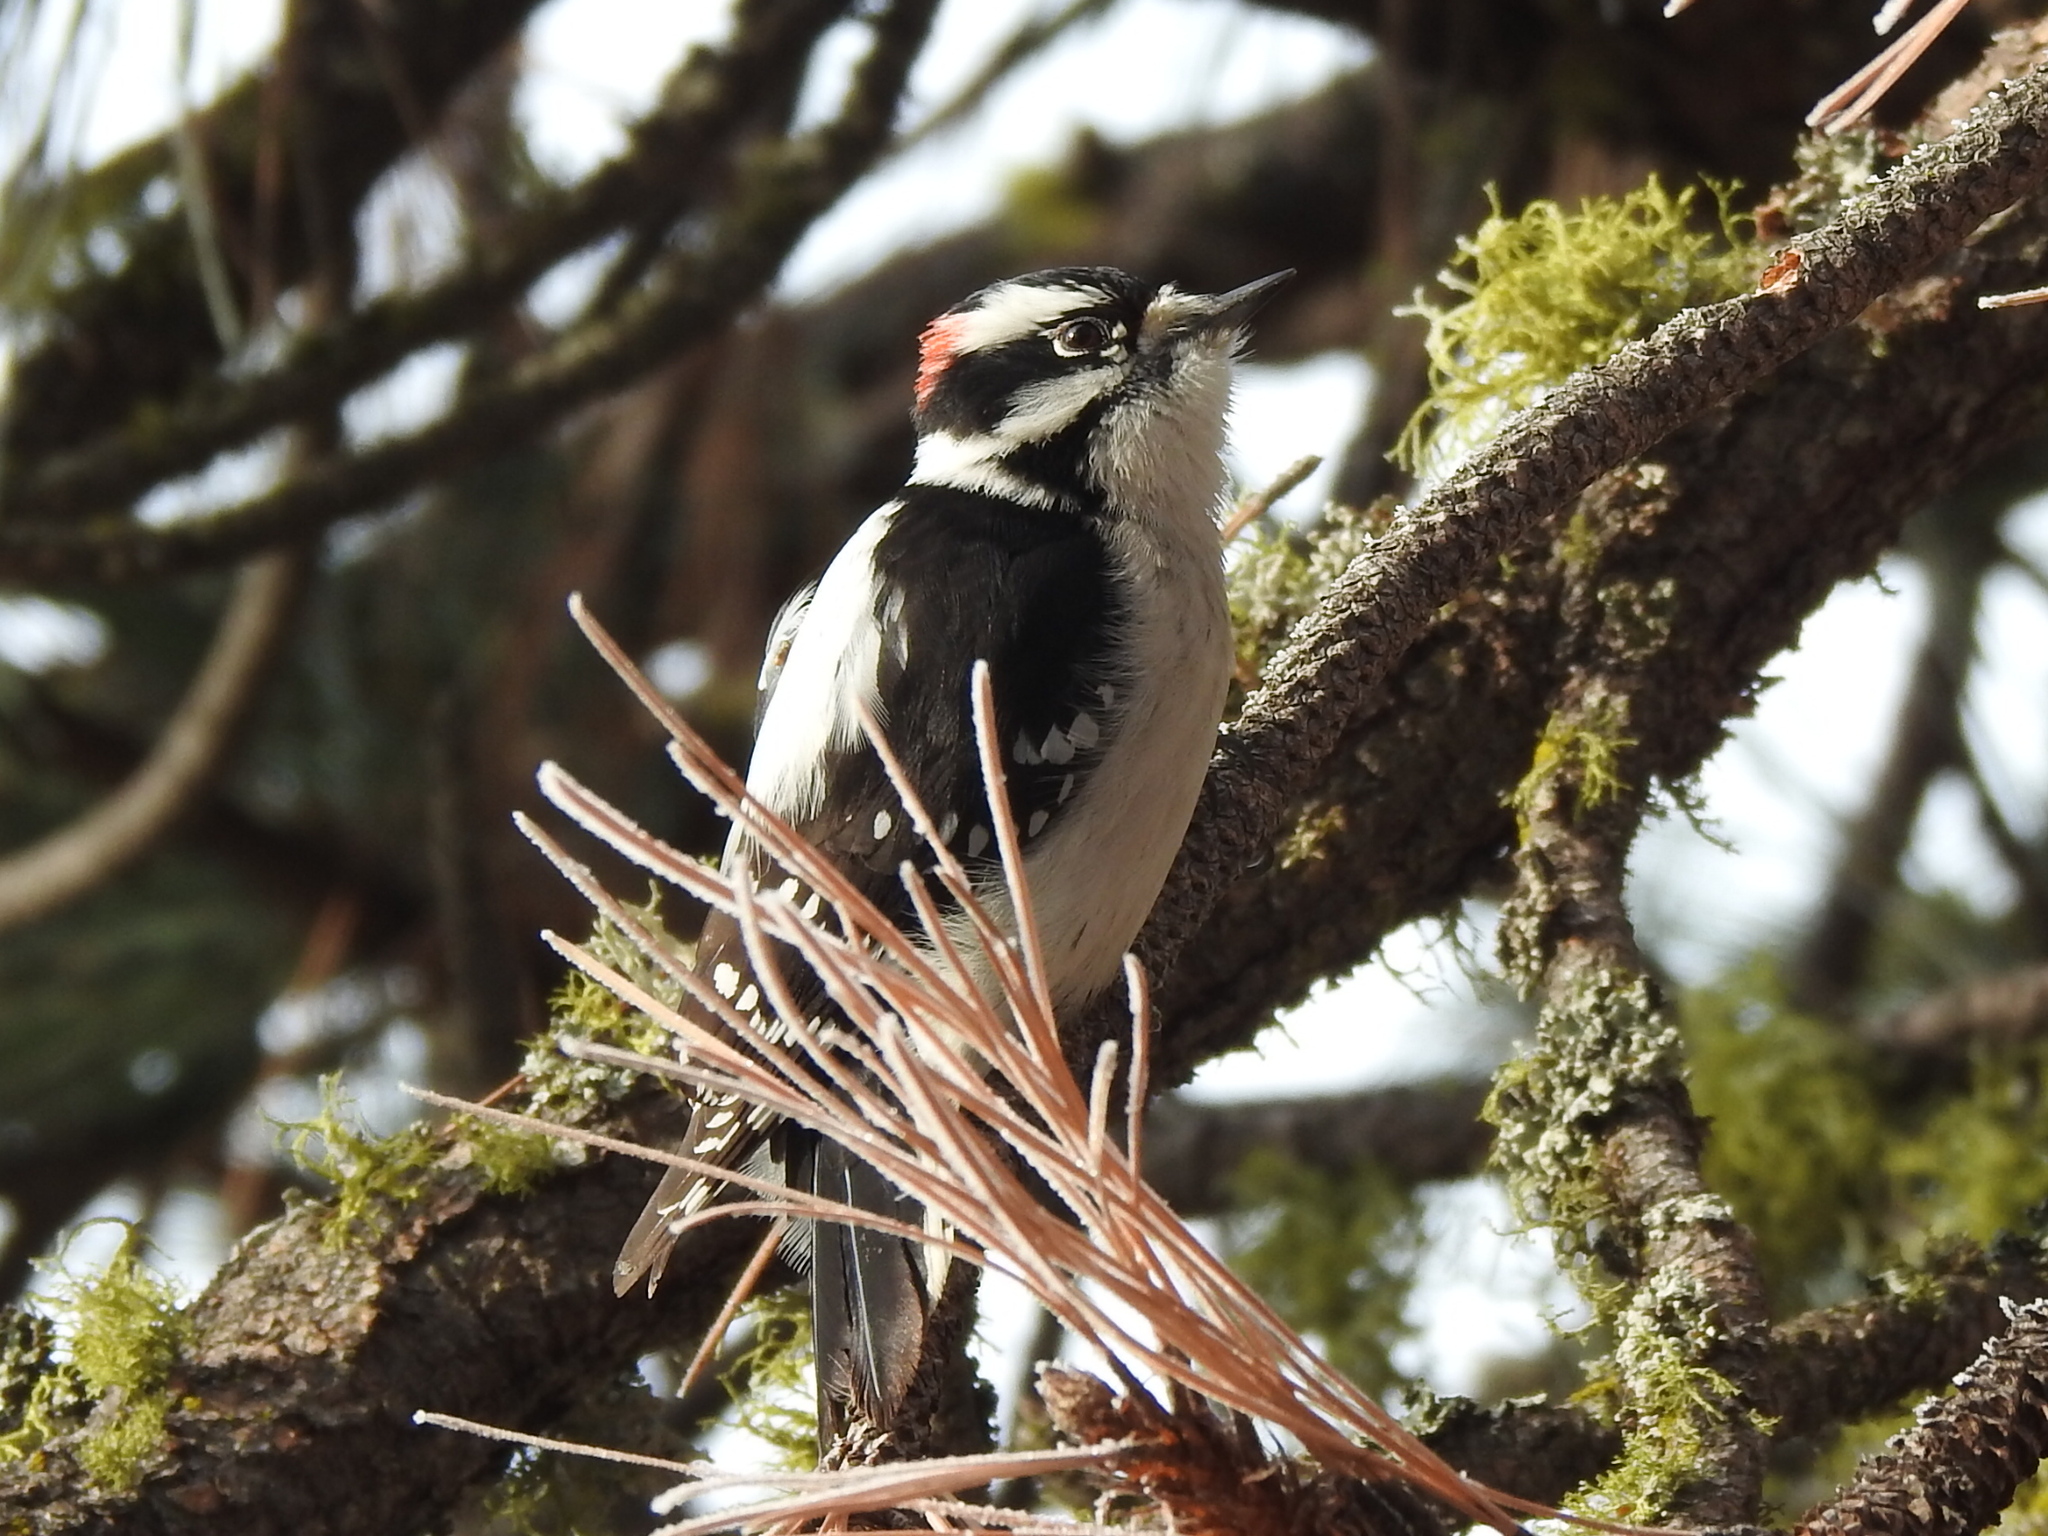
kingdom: Animalia
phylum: Chordata
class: Aves
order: Piciformes
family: Picidae
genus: Dryobates
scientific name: Dryobates pubescens
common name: Downy woodpecker
